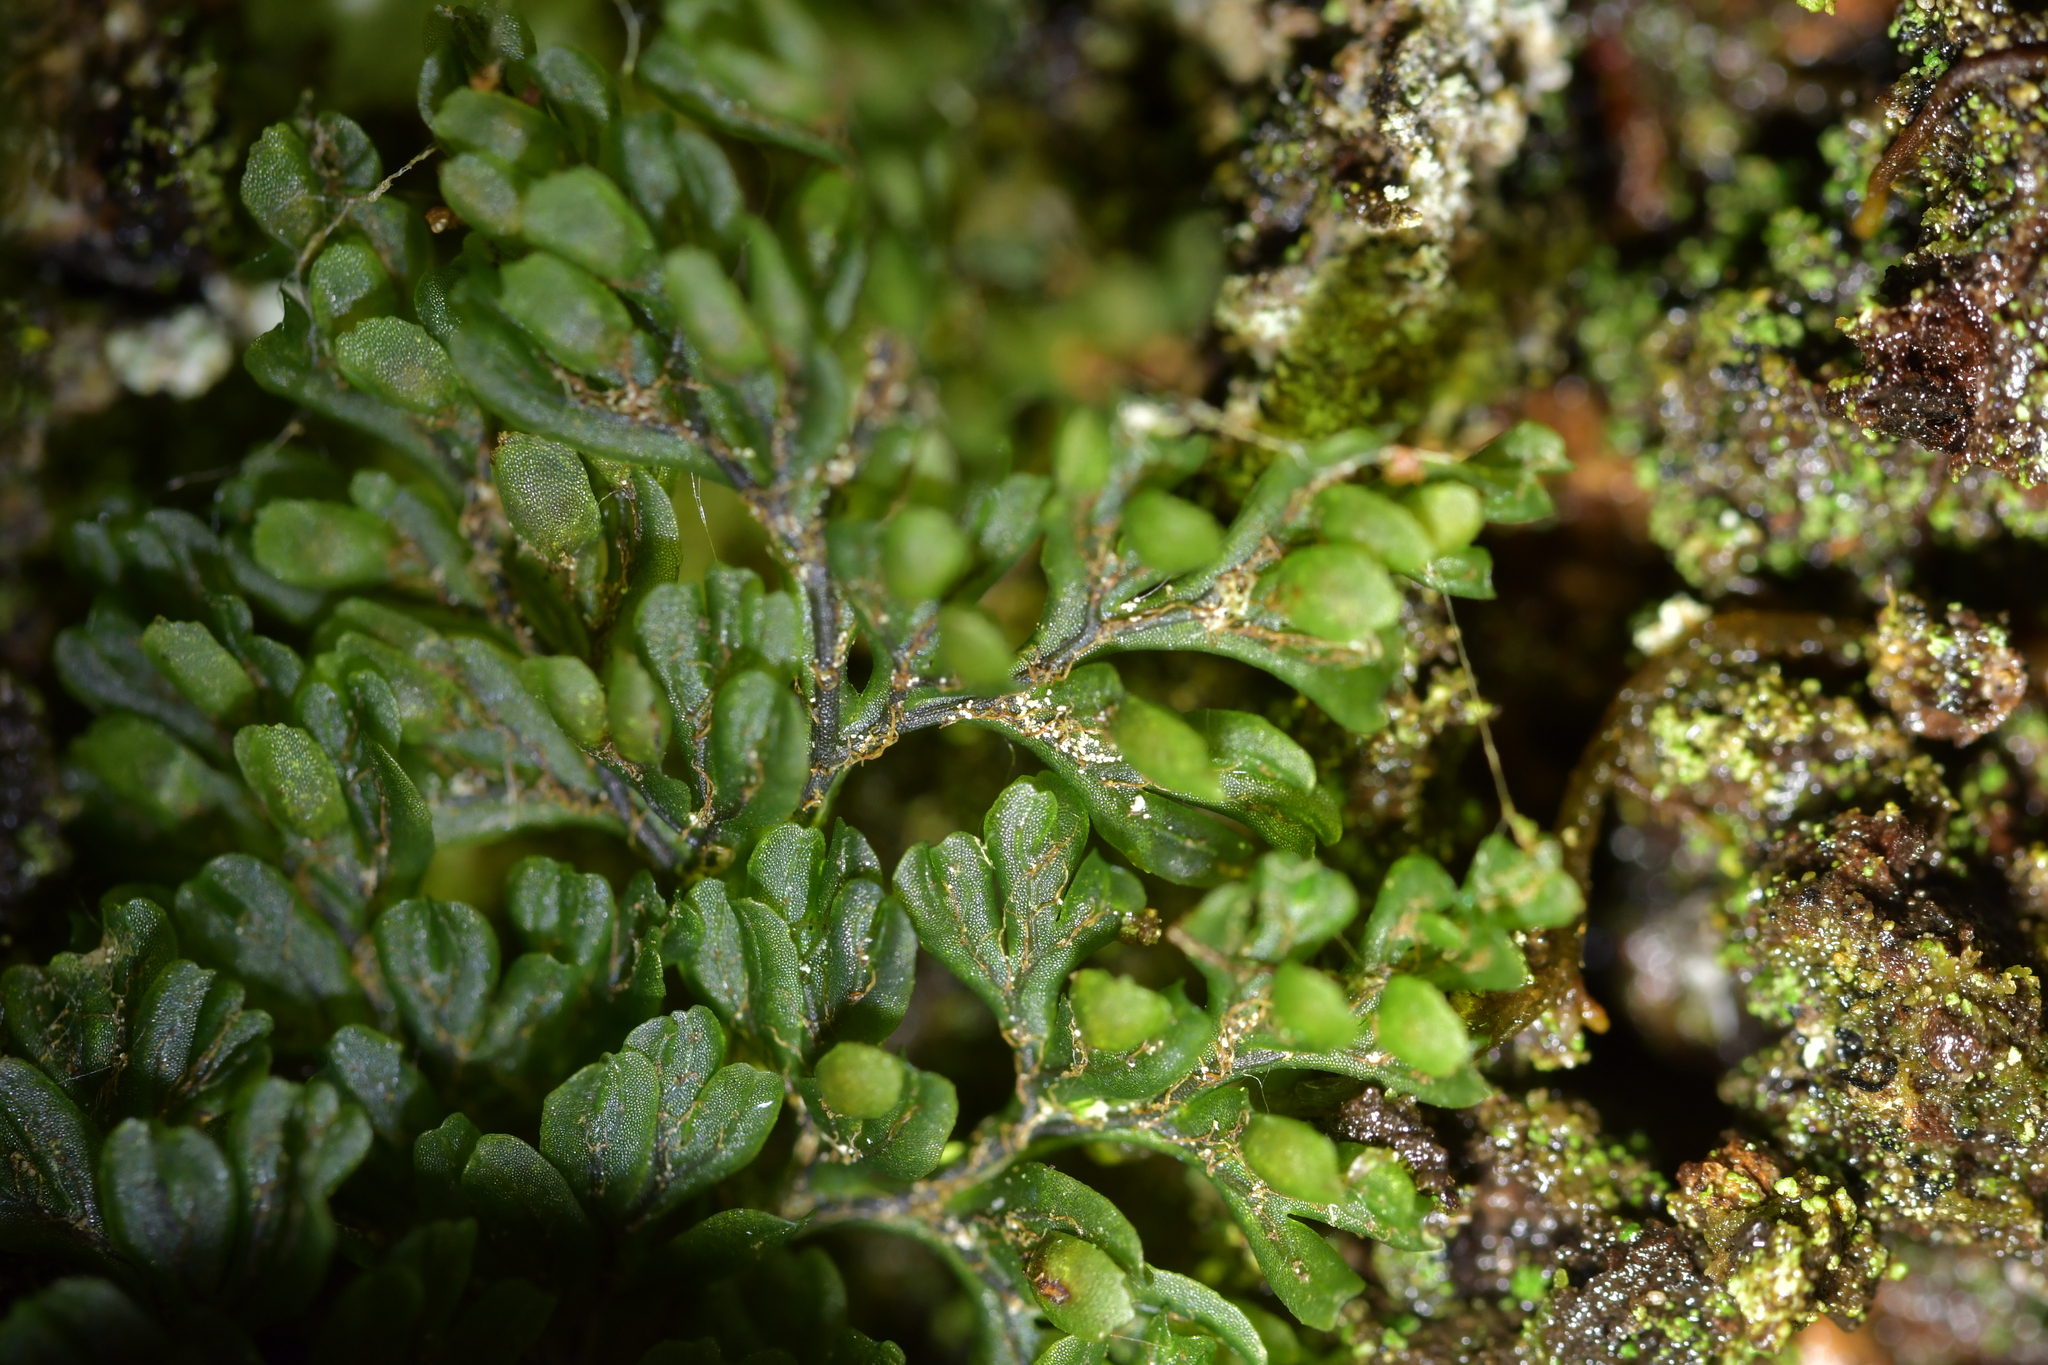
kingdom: Plantae
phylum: Tracheophyta
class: Polypodiopsida
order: Hymenophyllales
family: Hymenophyllaceae
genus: Hymenophyllum
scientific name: Hymenophyllum villosum
